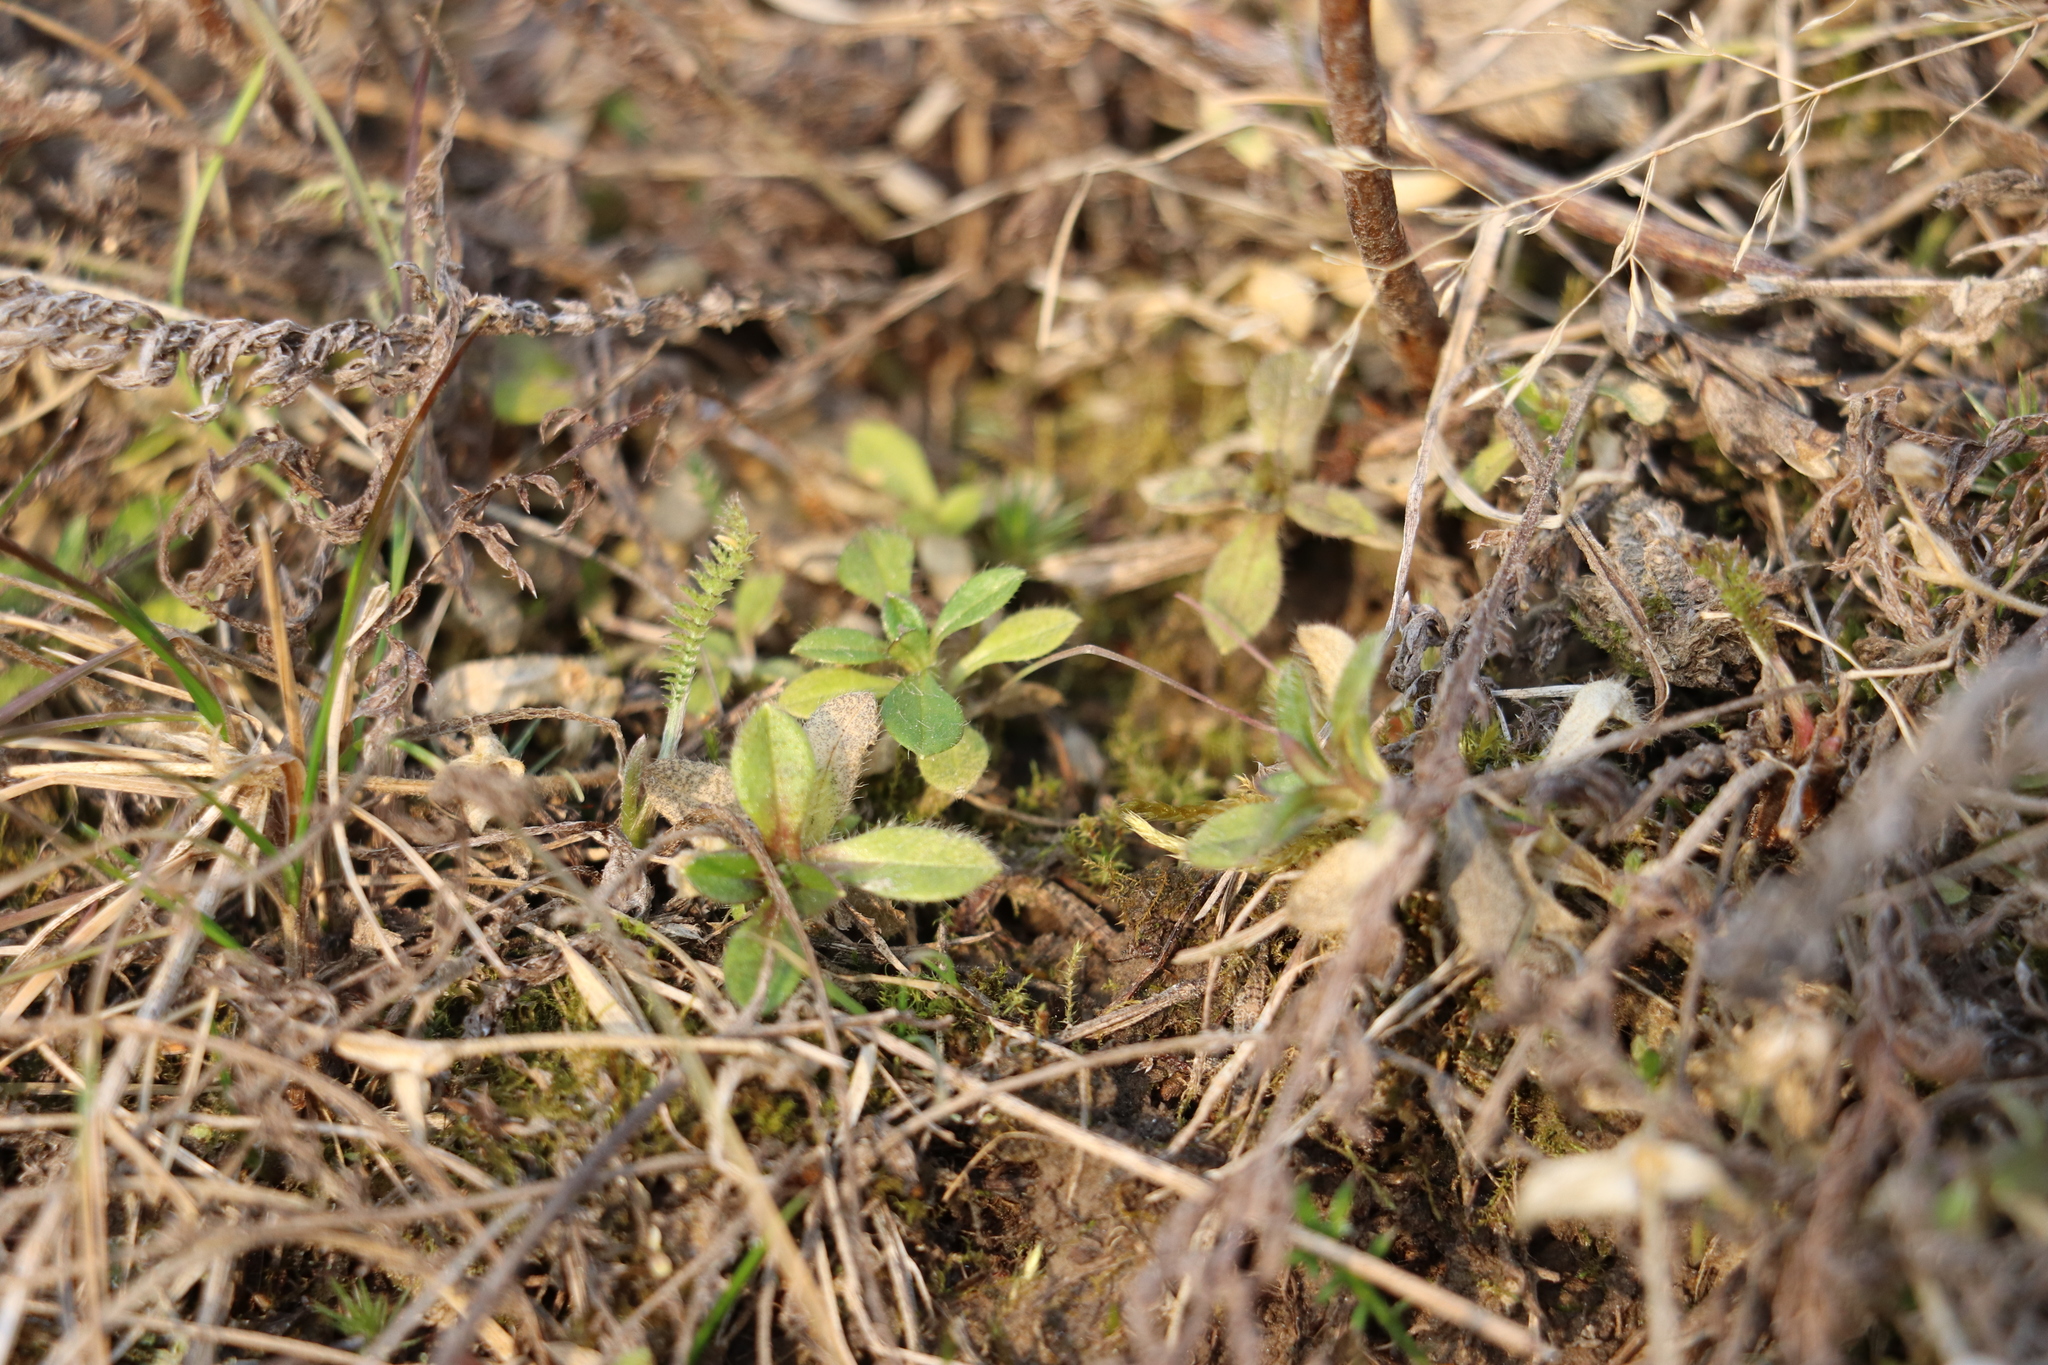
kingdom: Plantae
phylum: Tracheophyta
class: Magnoliopsida
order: Caryophyllales
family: Caryophyllaceae
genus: Cerastium
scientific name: Cerastium holosteoides
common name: Big chickweed
